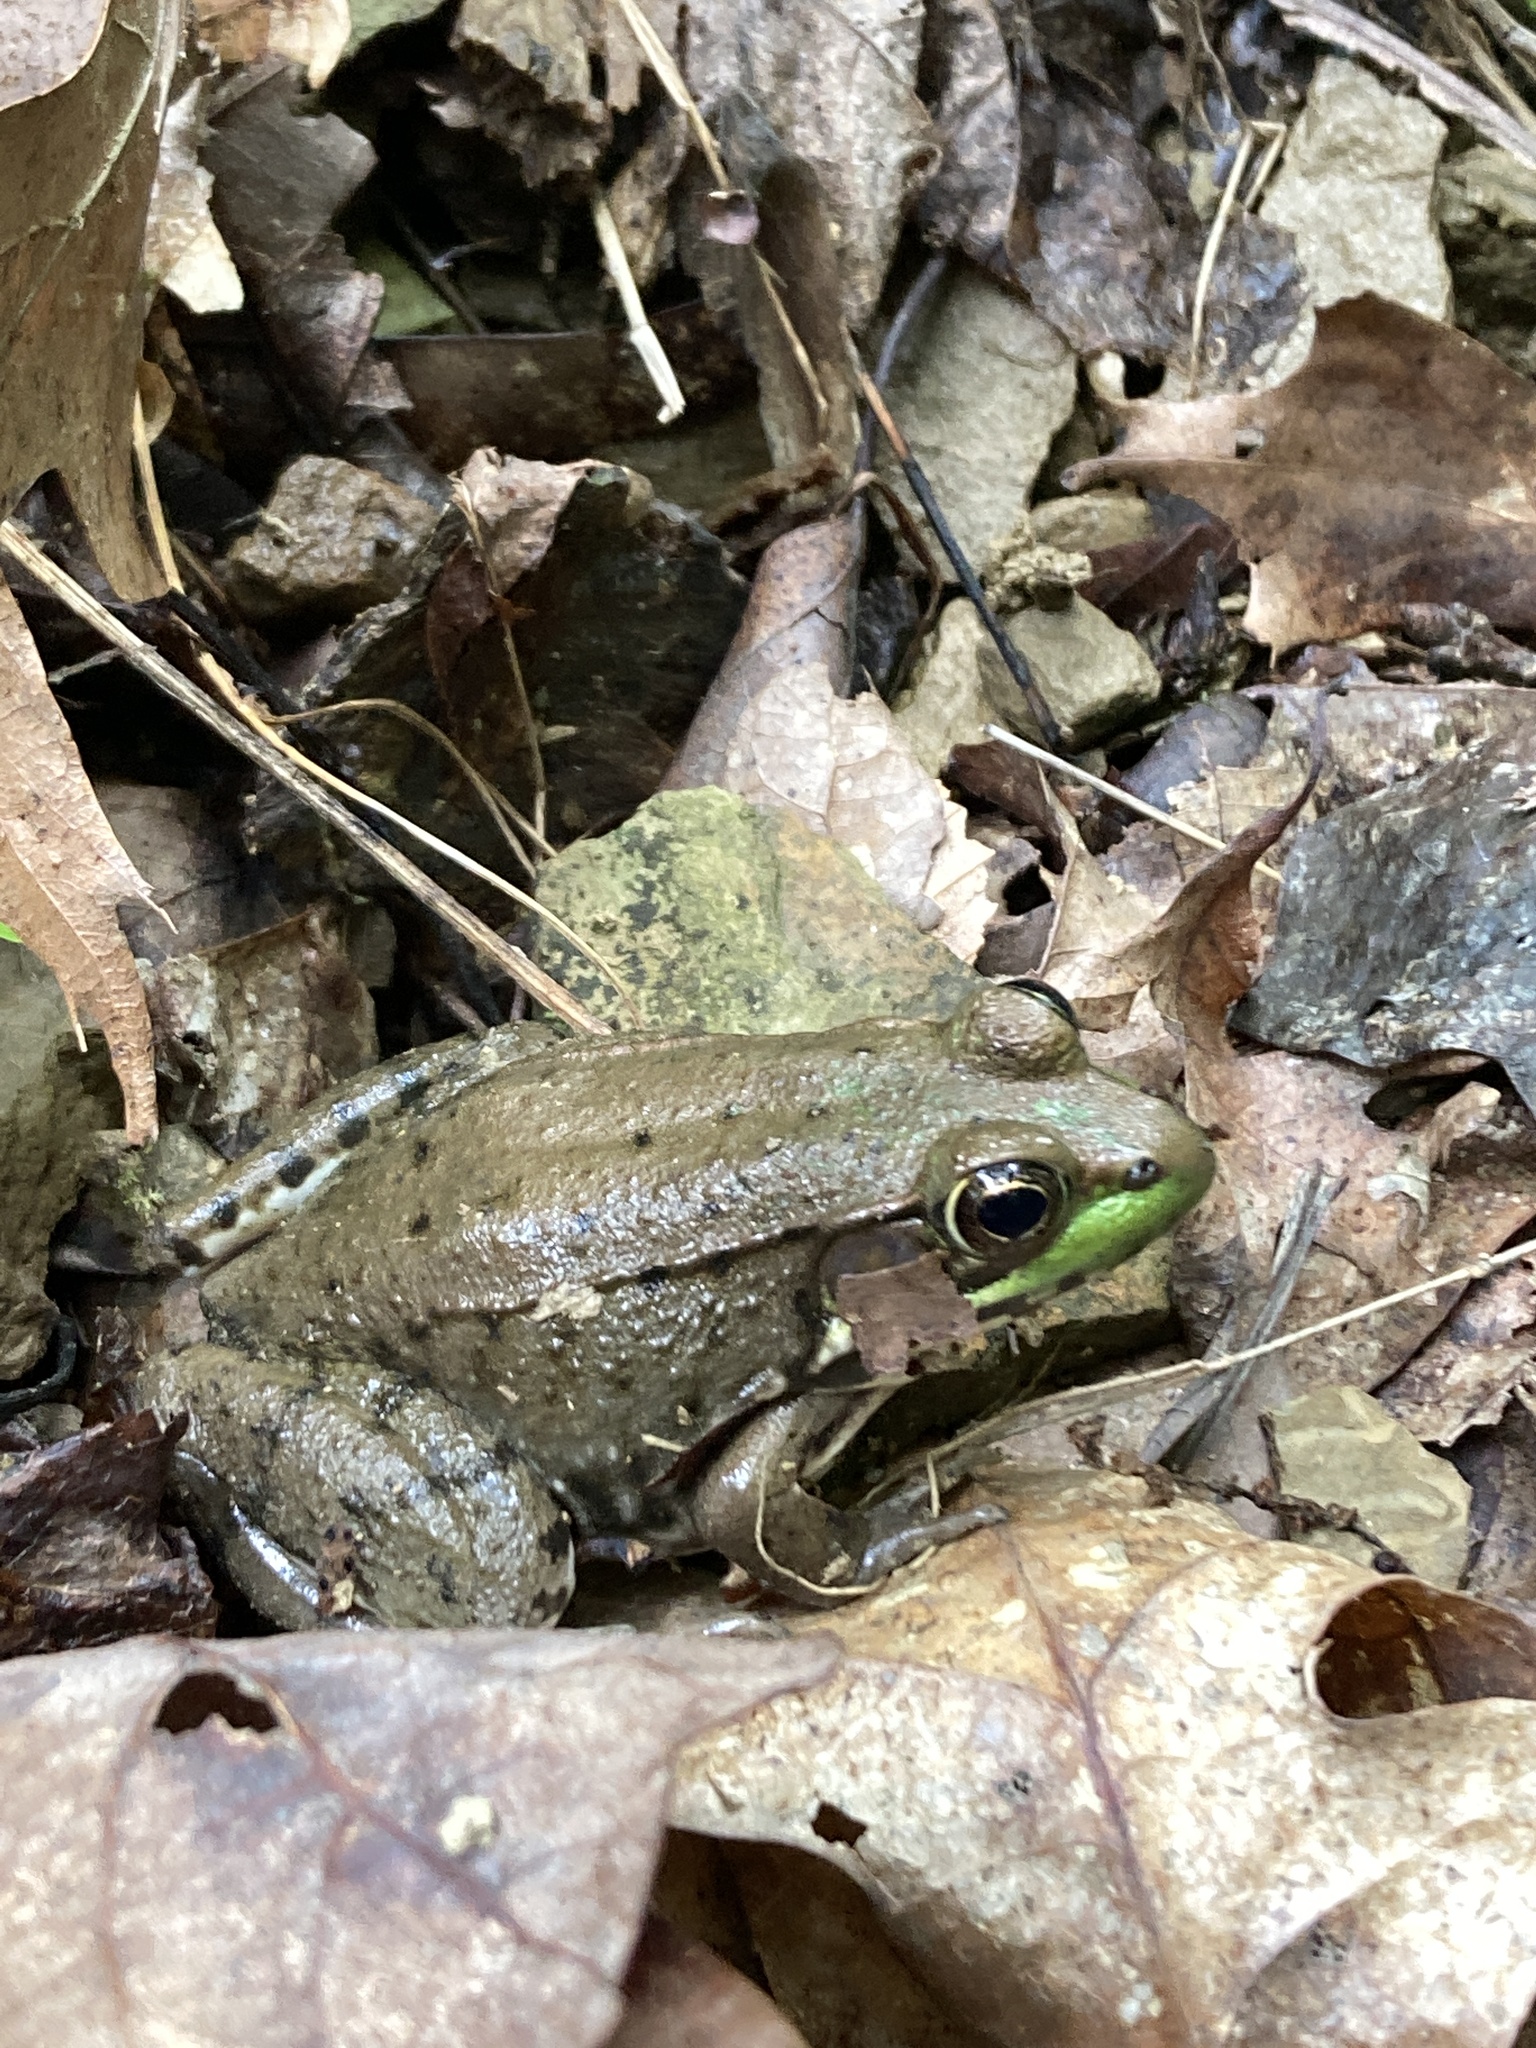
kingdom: Animalia
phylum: Chordata
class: Amphibia
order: Anura
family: Ranidae
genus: Lithobates
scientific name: Lithobates clamitans
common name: Green frog
